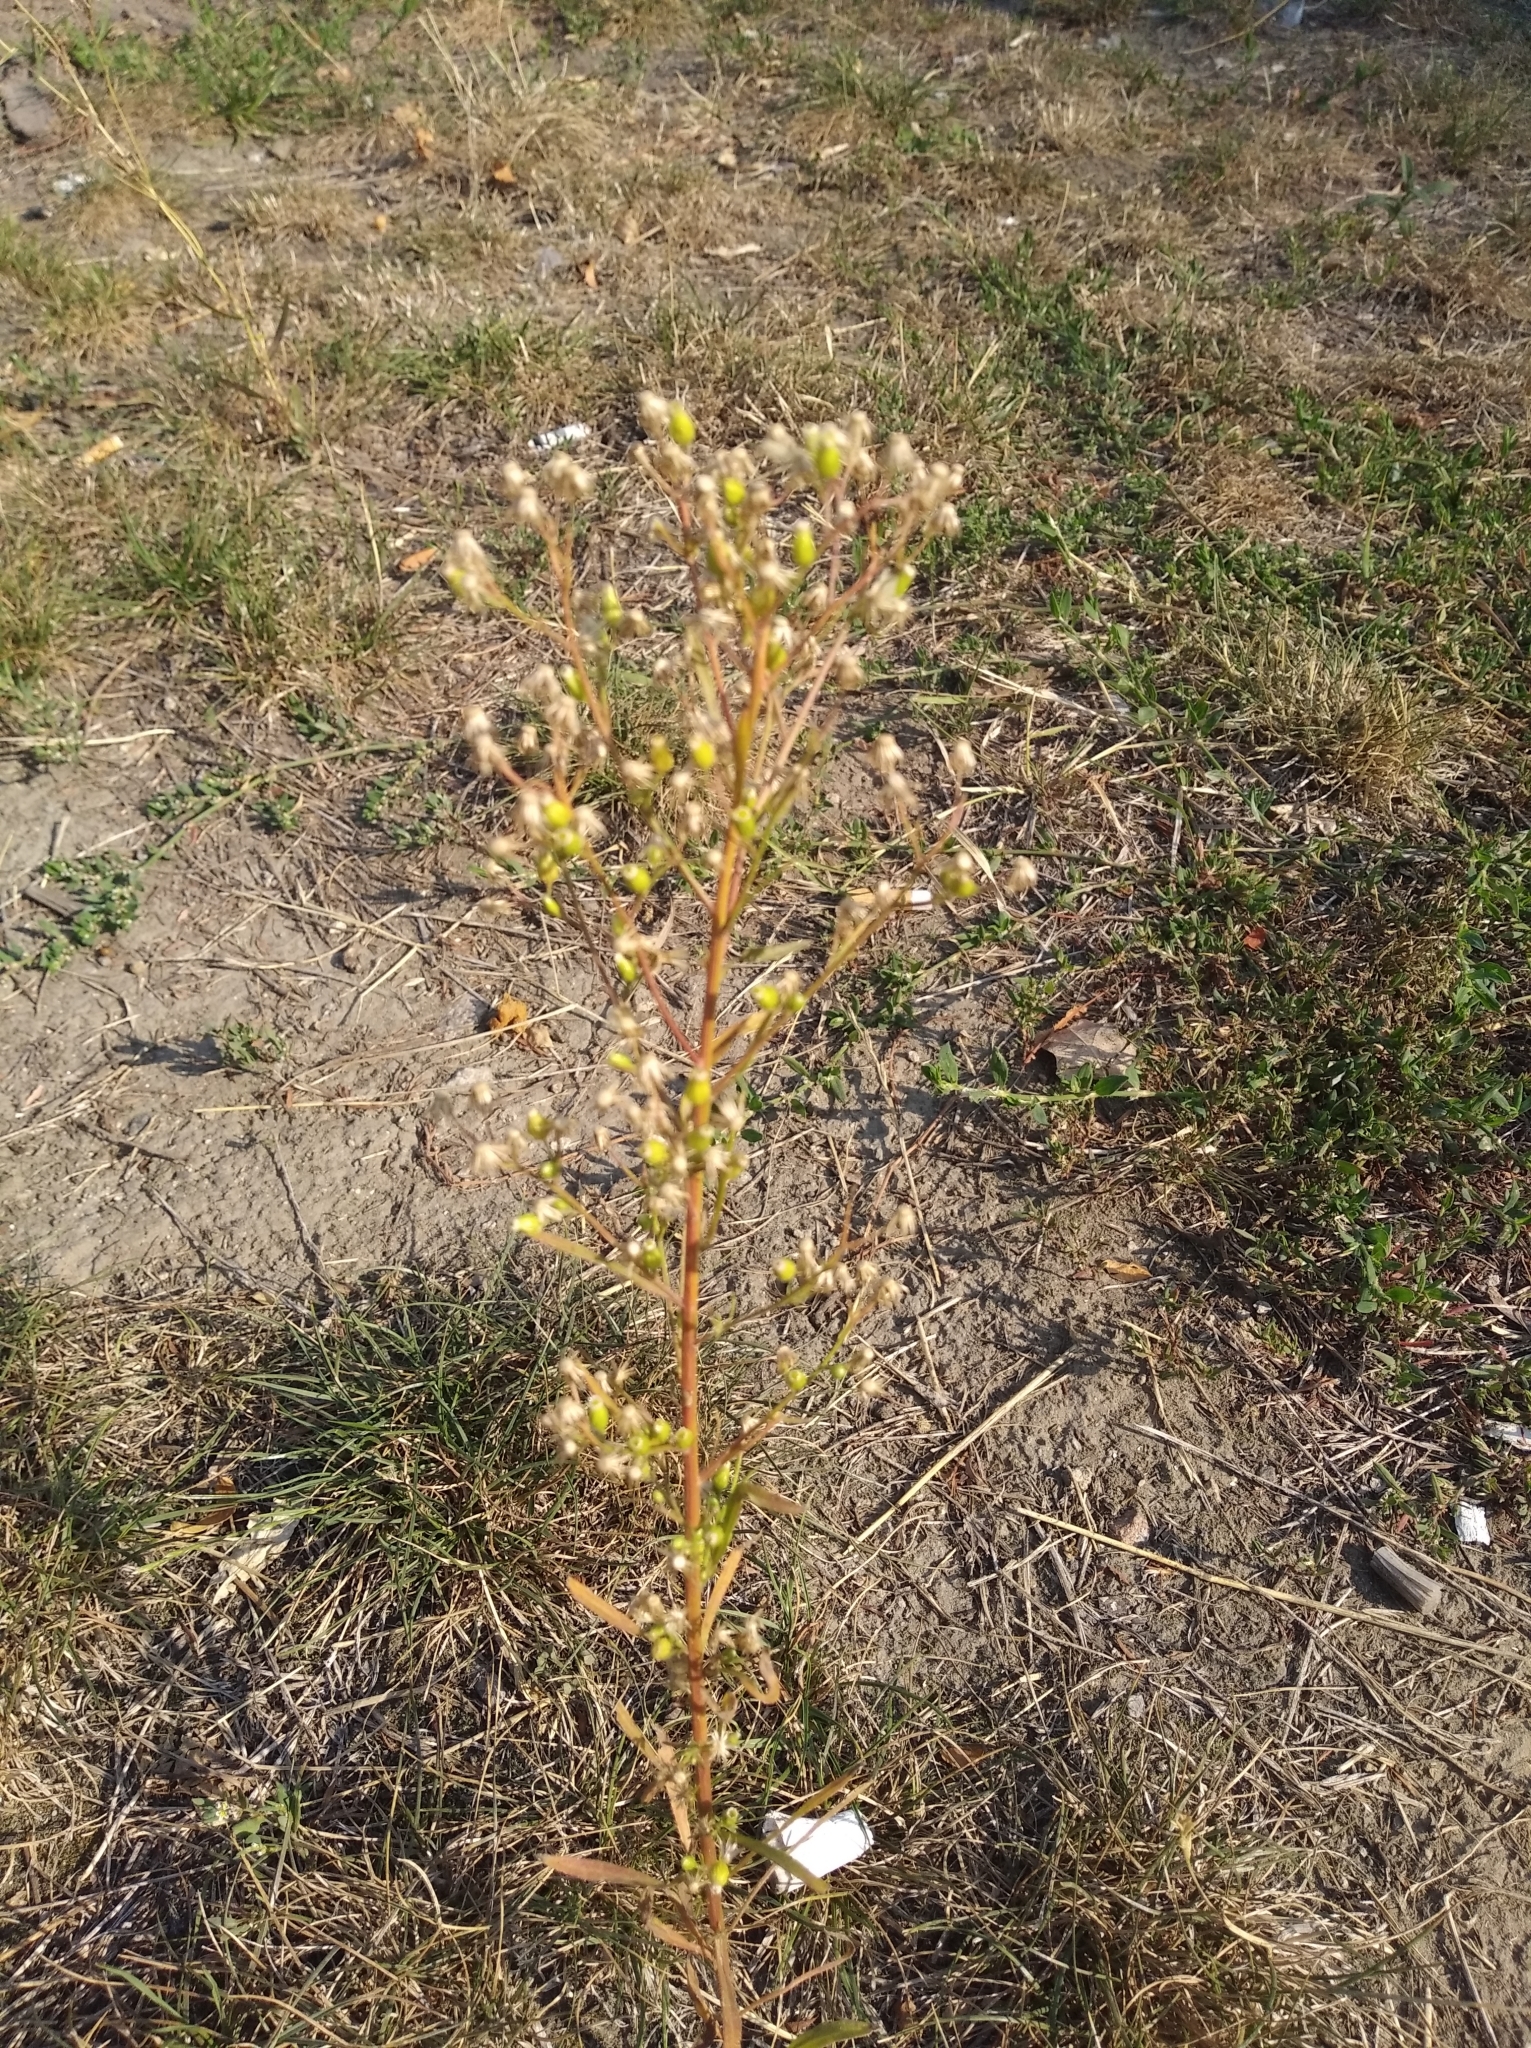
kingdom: Plantae
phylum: Tracheophyta
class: Magnoliopsida
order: Asterales
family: Asteraceae
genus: Erigeron
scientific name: Erigeron canadensis
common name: Canadian fleabane
